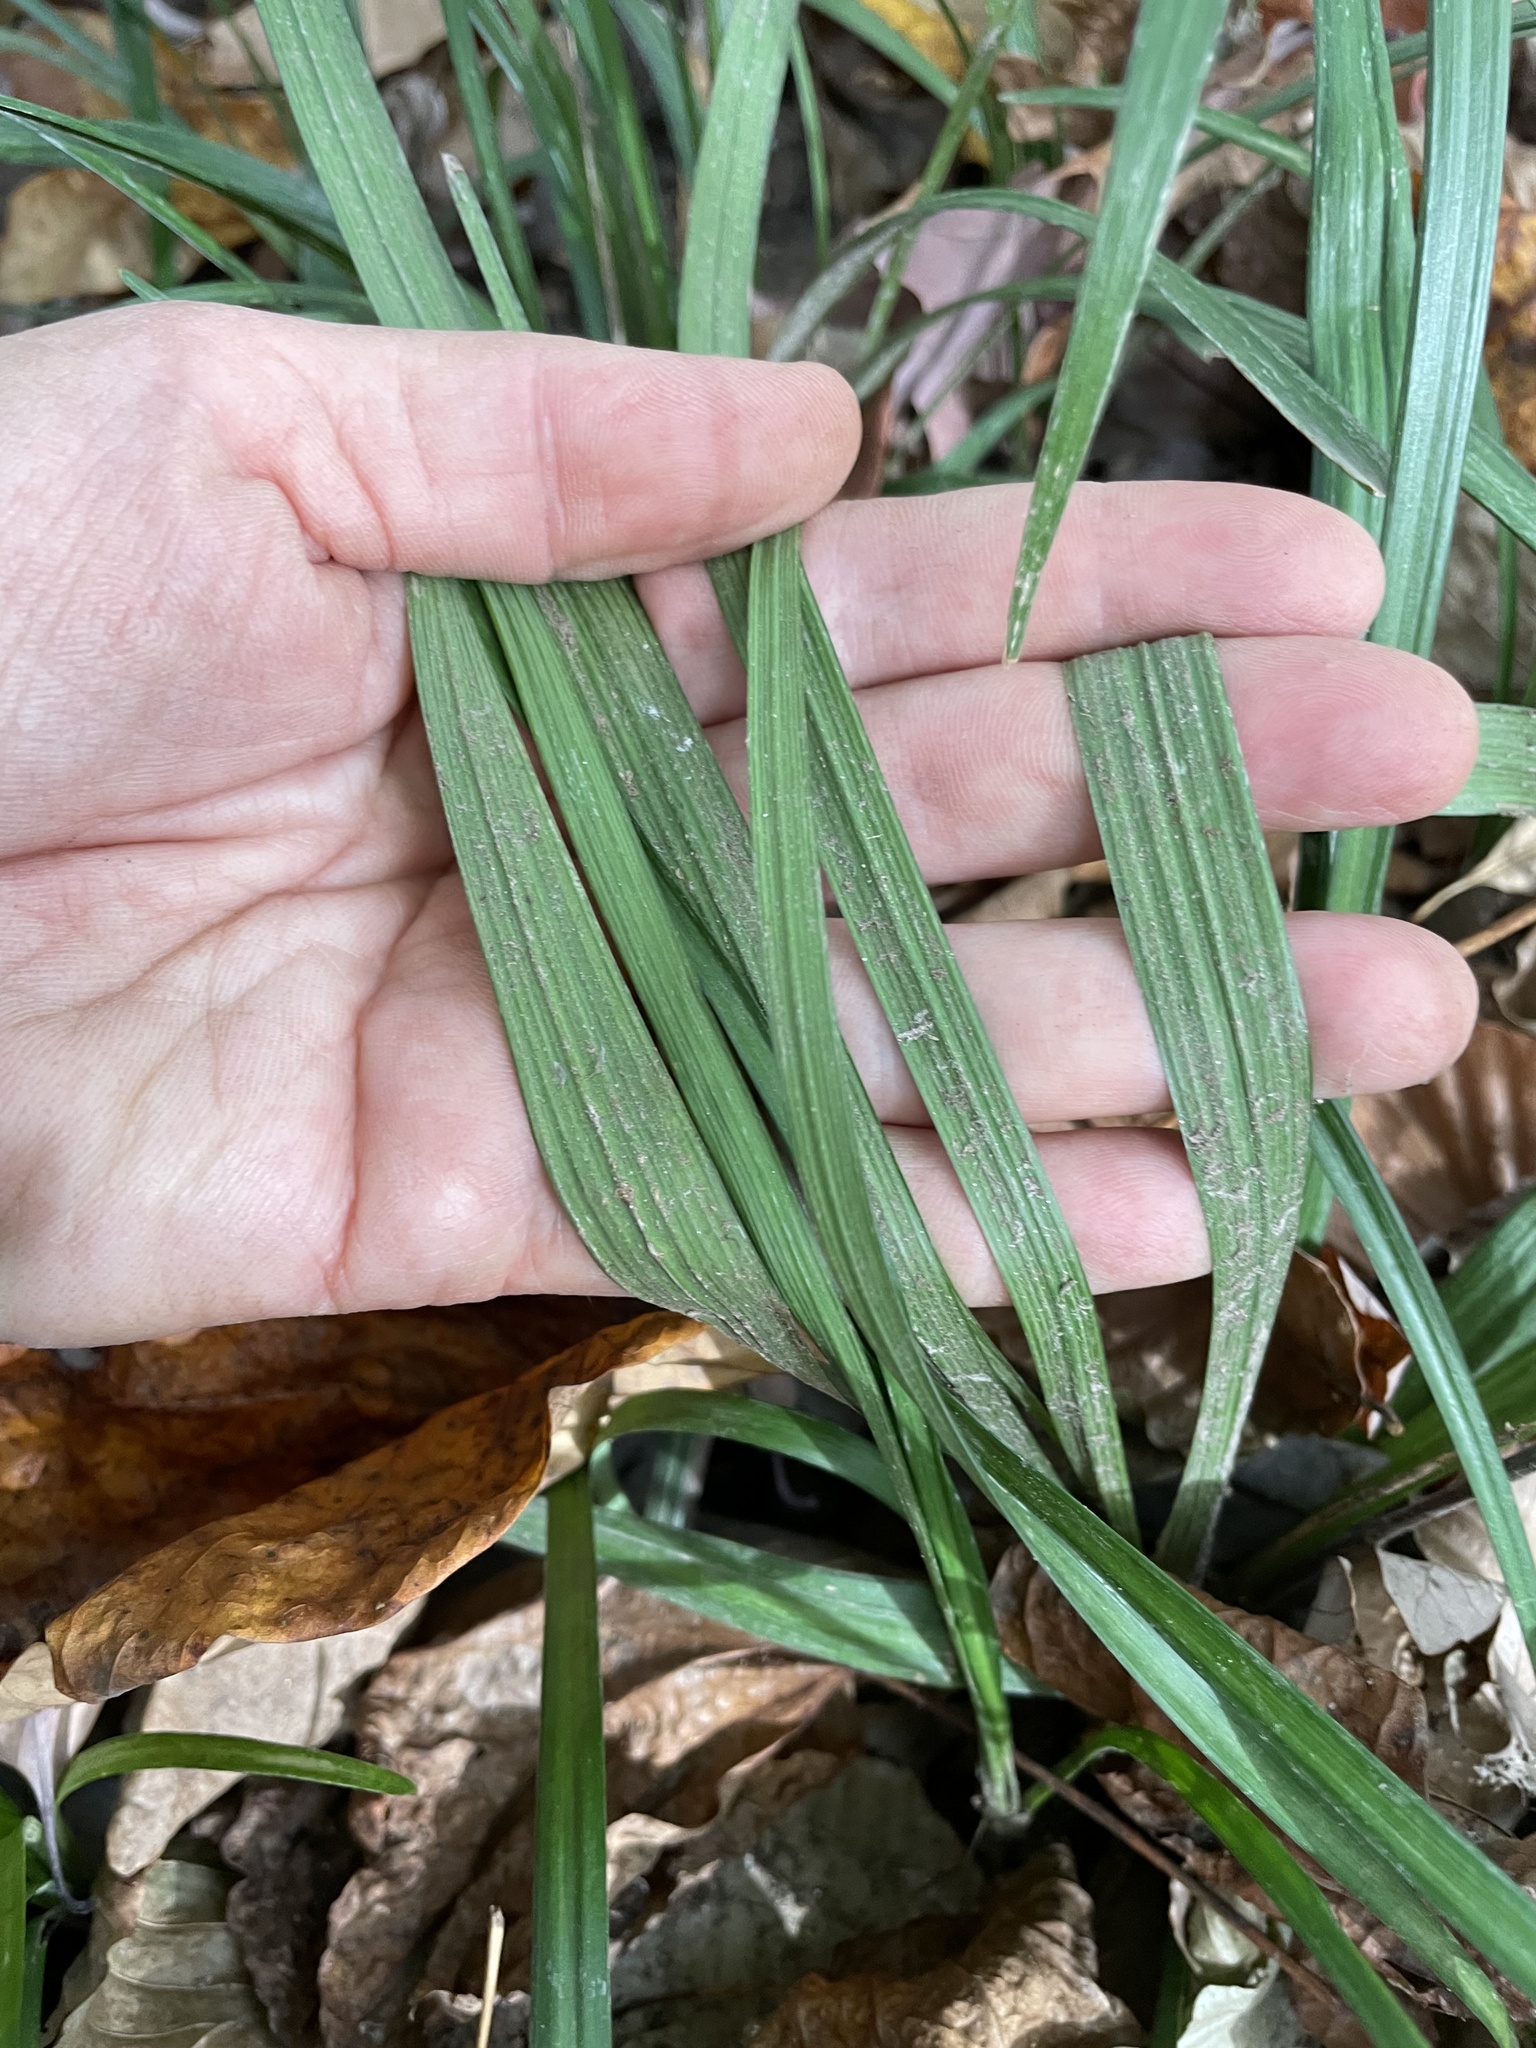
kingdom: Plantae
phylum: Tracheophyta
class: Liliopsida
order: Asparagales
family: Asparagaceae
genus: Liriope
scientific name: Liriope muscari
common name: Big blue lilyturf
